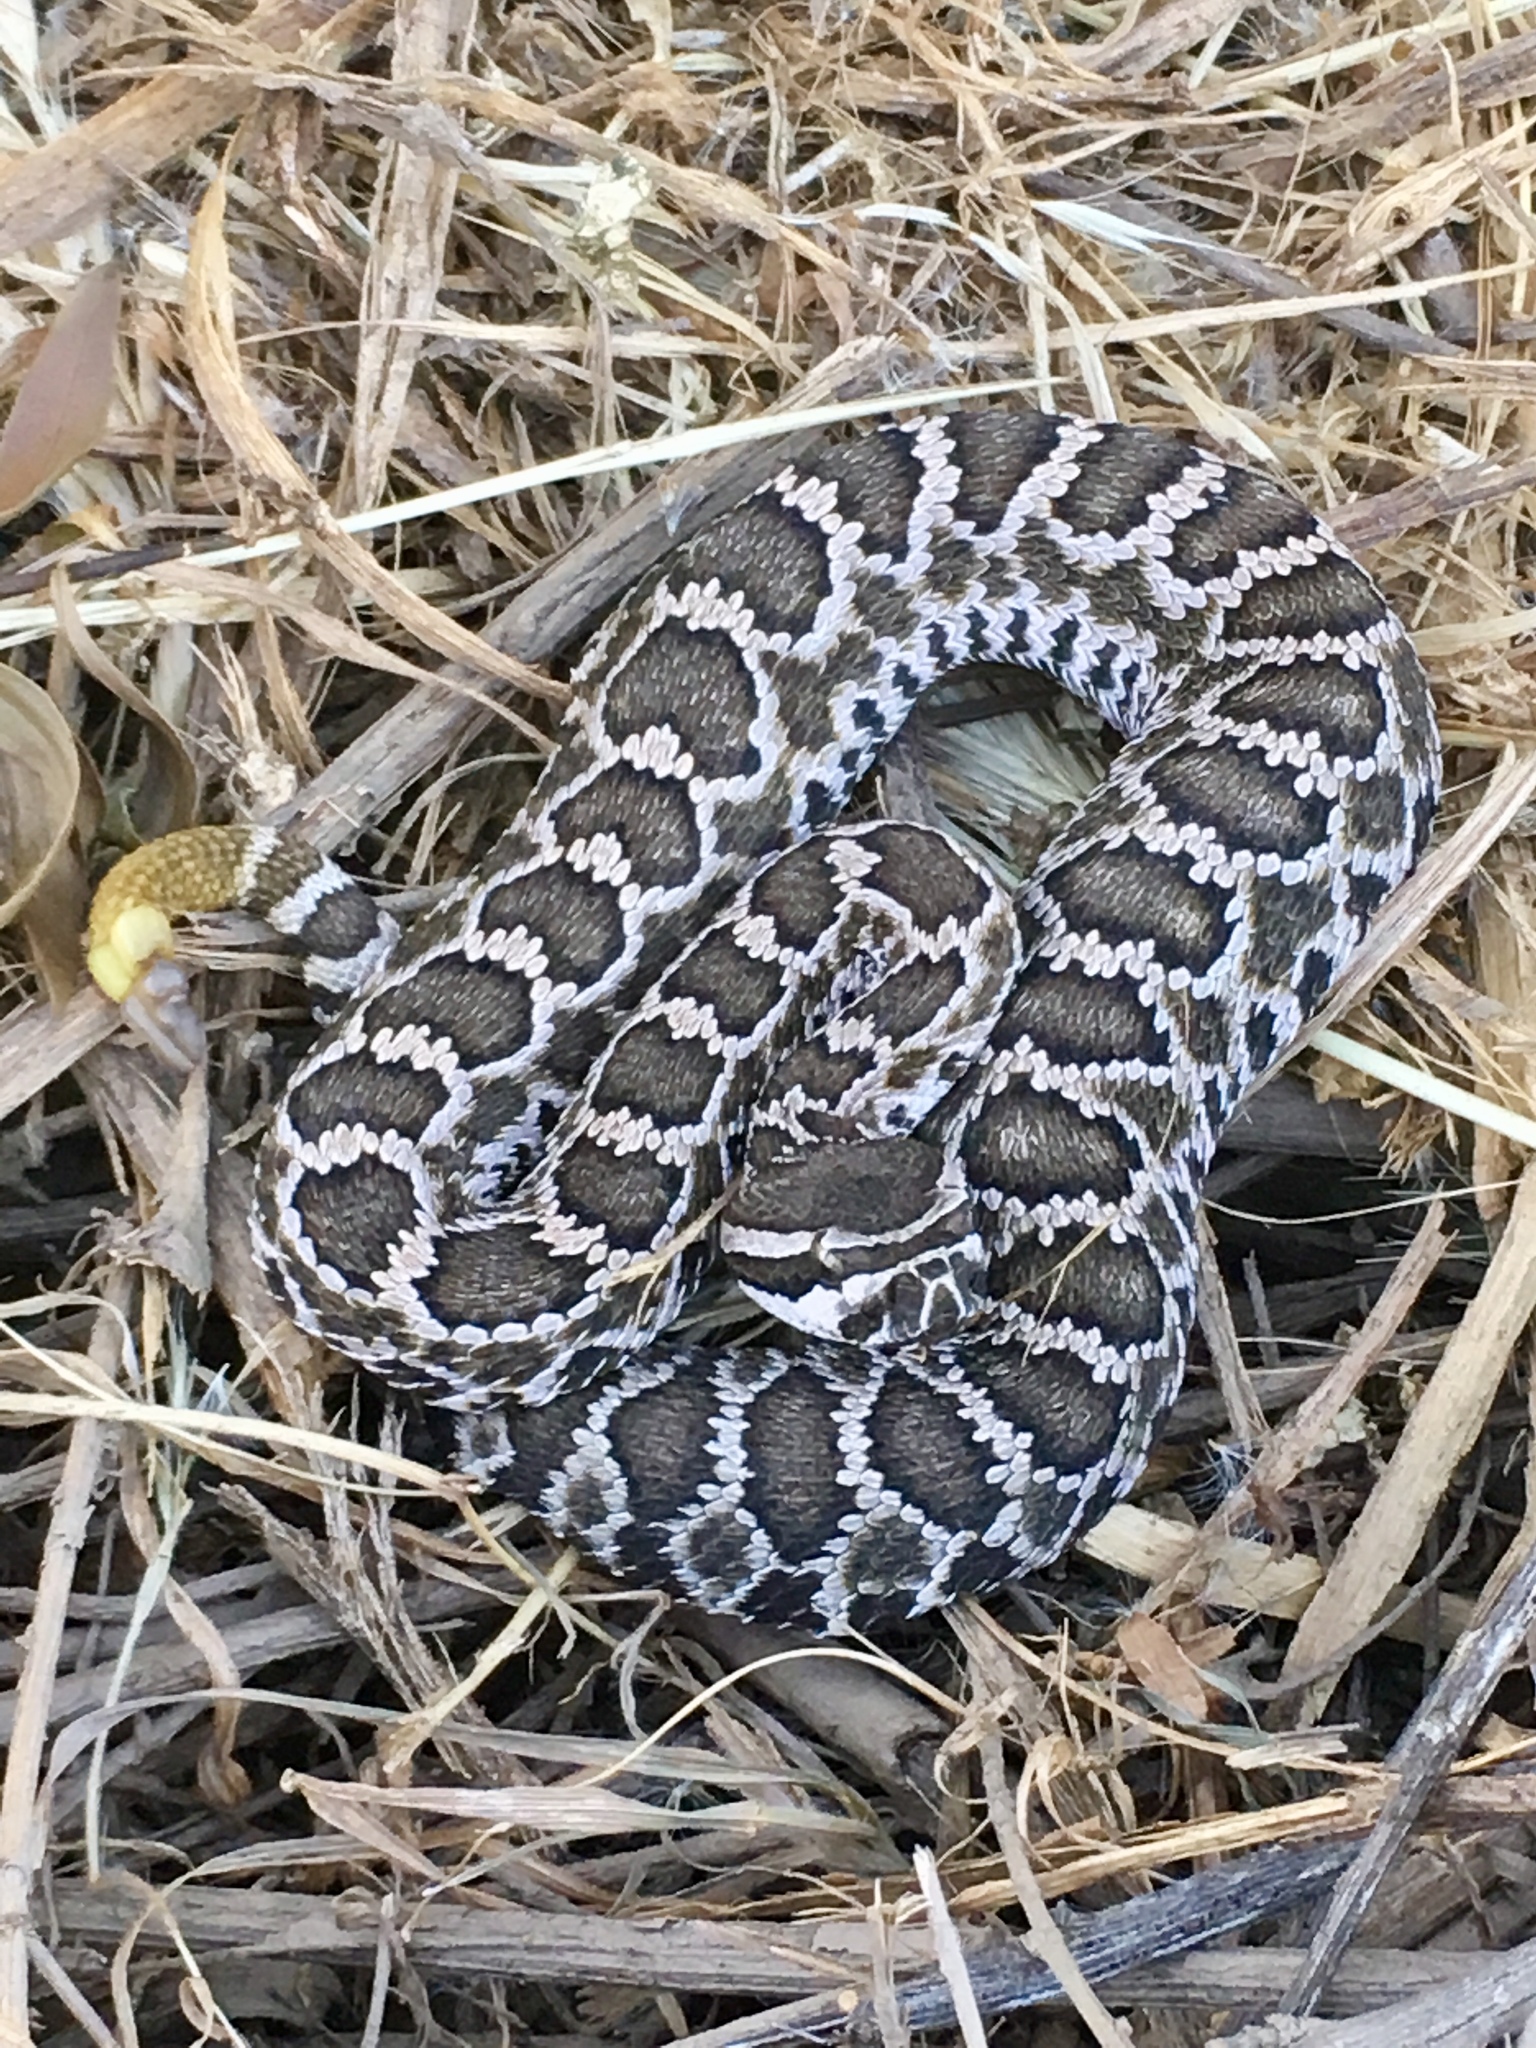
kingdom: Animalia
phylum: Chordata
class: Squamata
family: Viperidae
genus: Crotalus
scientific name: Crotalus oreganus
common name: Abyssus
